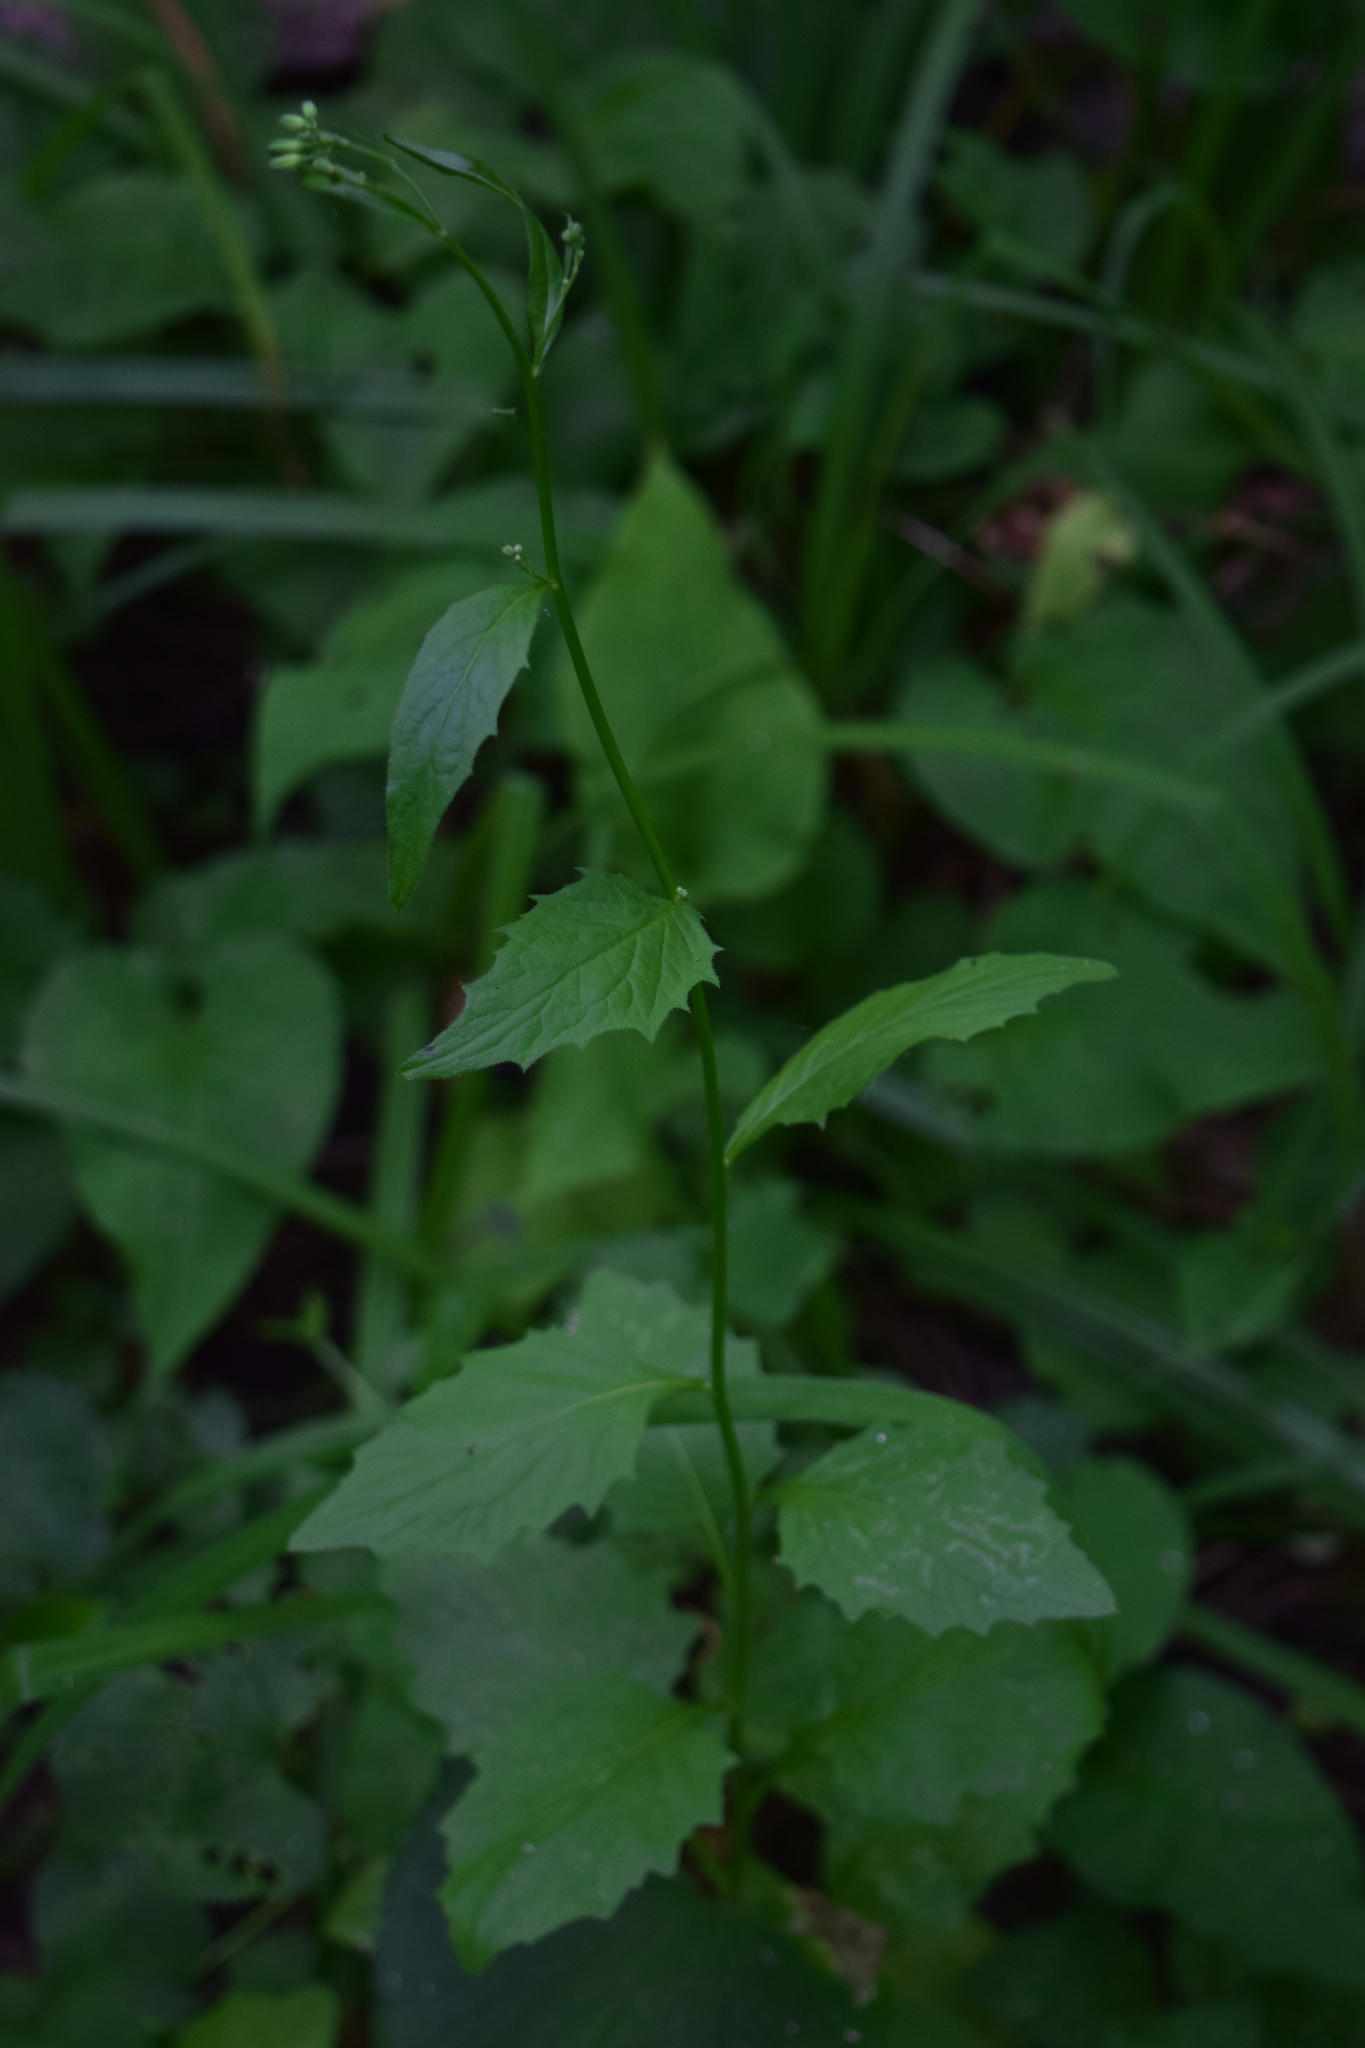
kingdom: Plantae
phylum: Tracheophyta
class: Magnoliopsida
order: Asterales
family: Asteraceae
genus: Lapsana
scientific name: Lapsana communis
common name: Nipplewort
